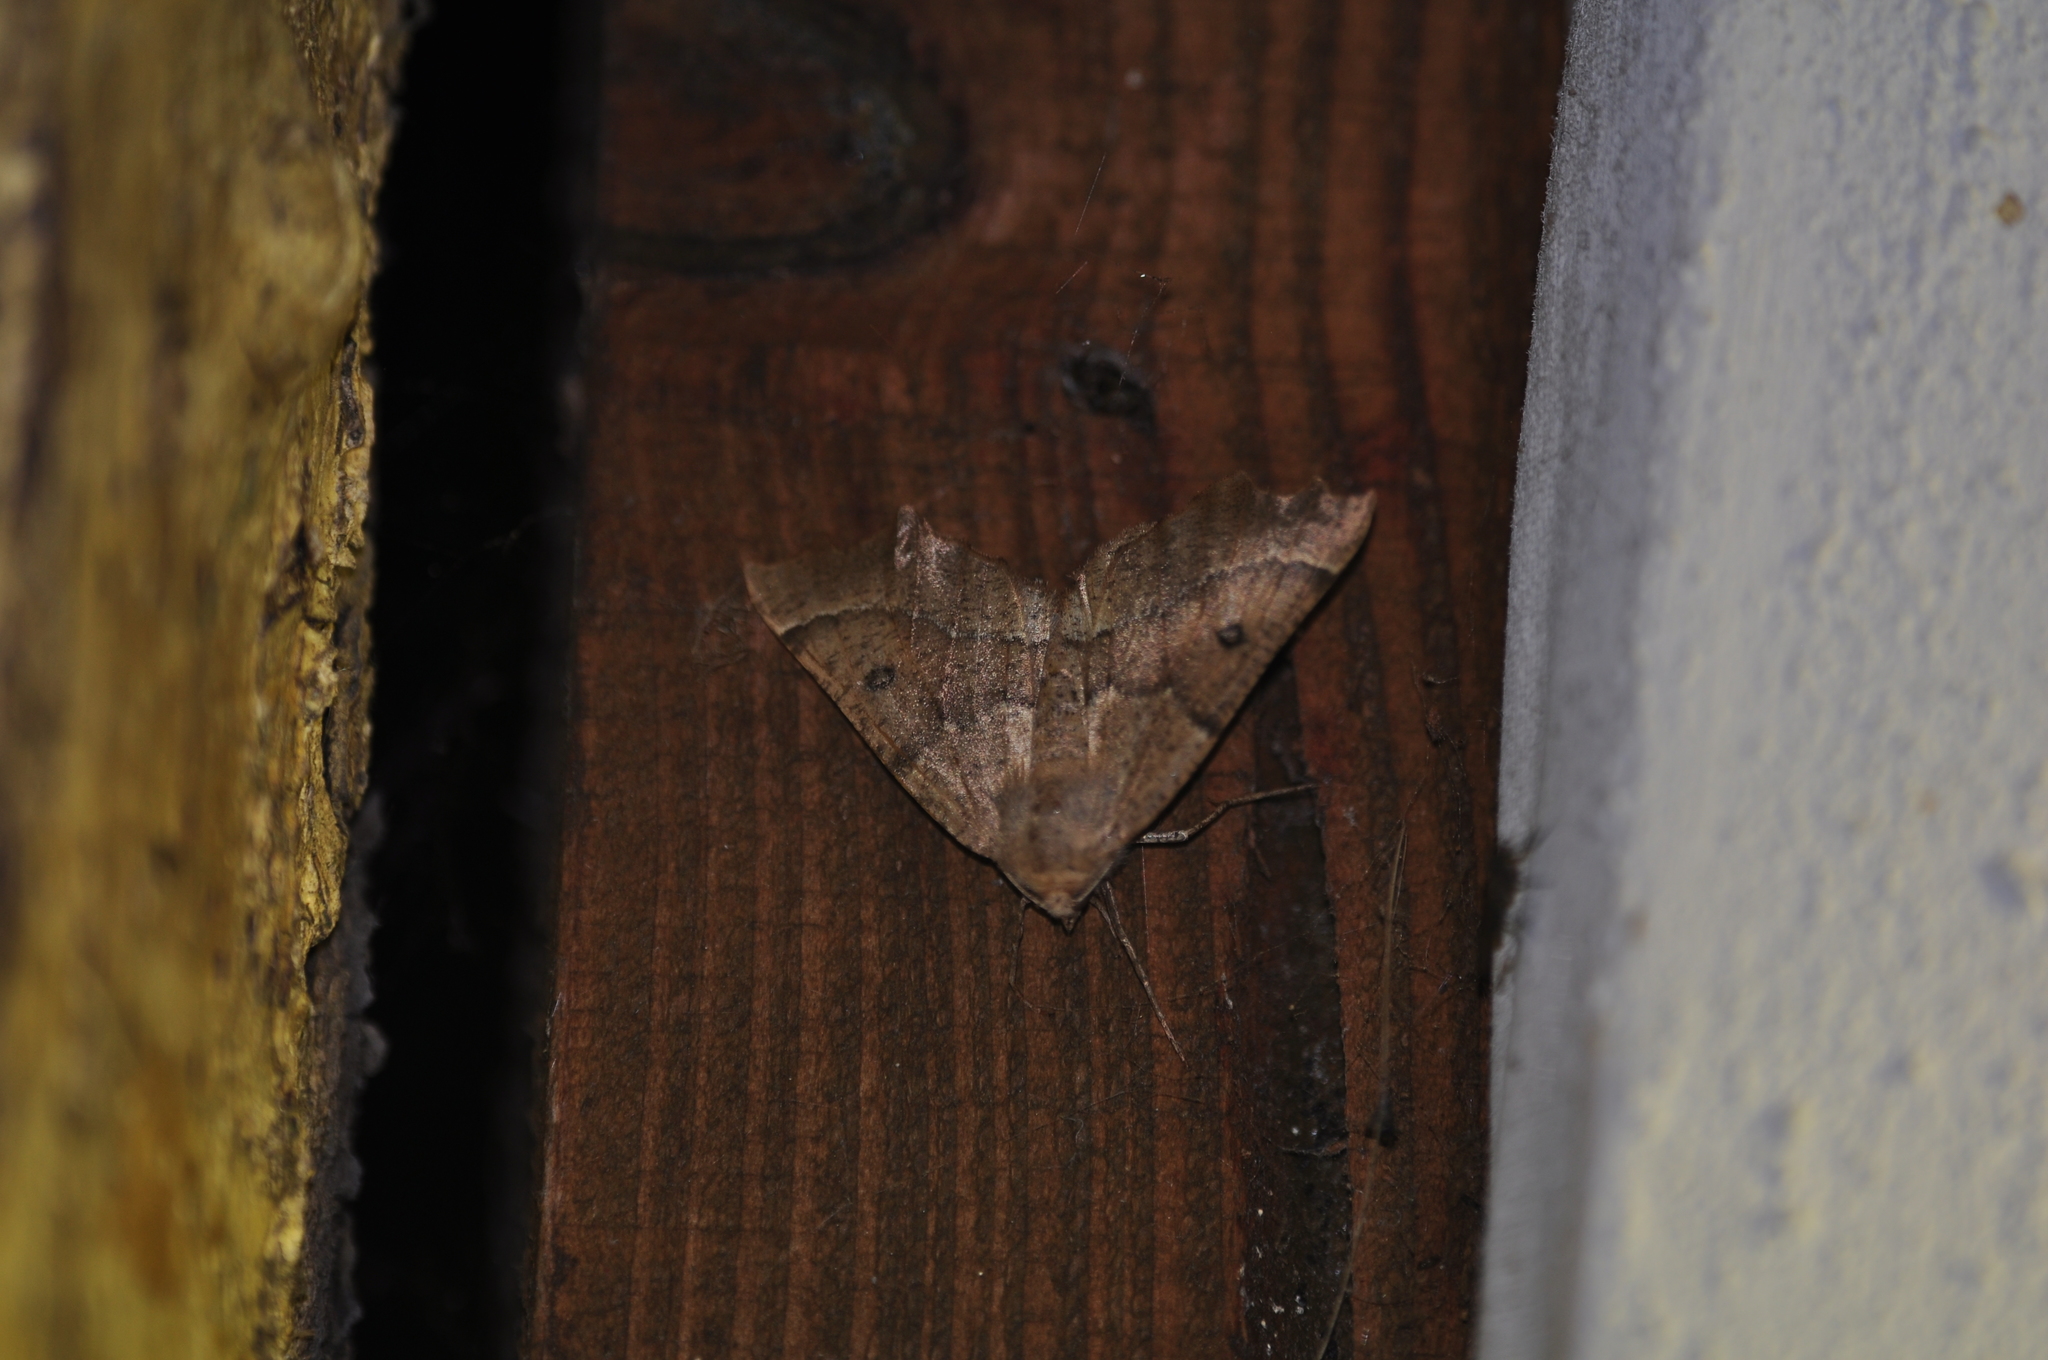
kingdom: Animalia
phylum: Arthropoda
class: Insecta
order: Lepidoptera
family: Geometridae
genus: Odontopera
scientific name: Odontopera bidentata
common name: Scalloped hazel
